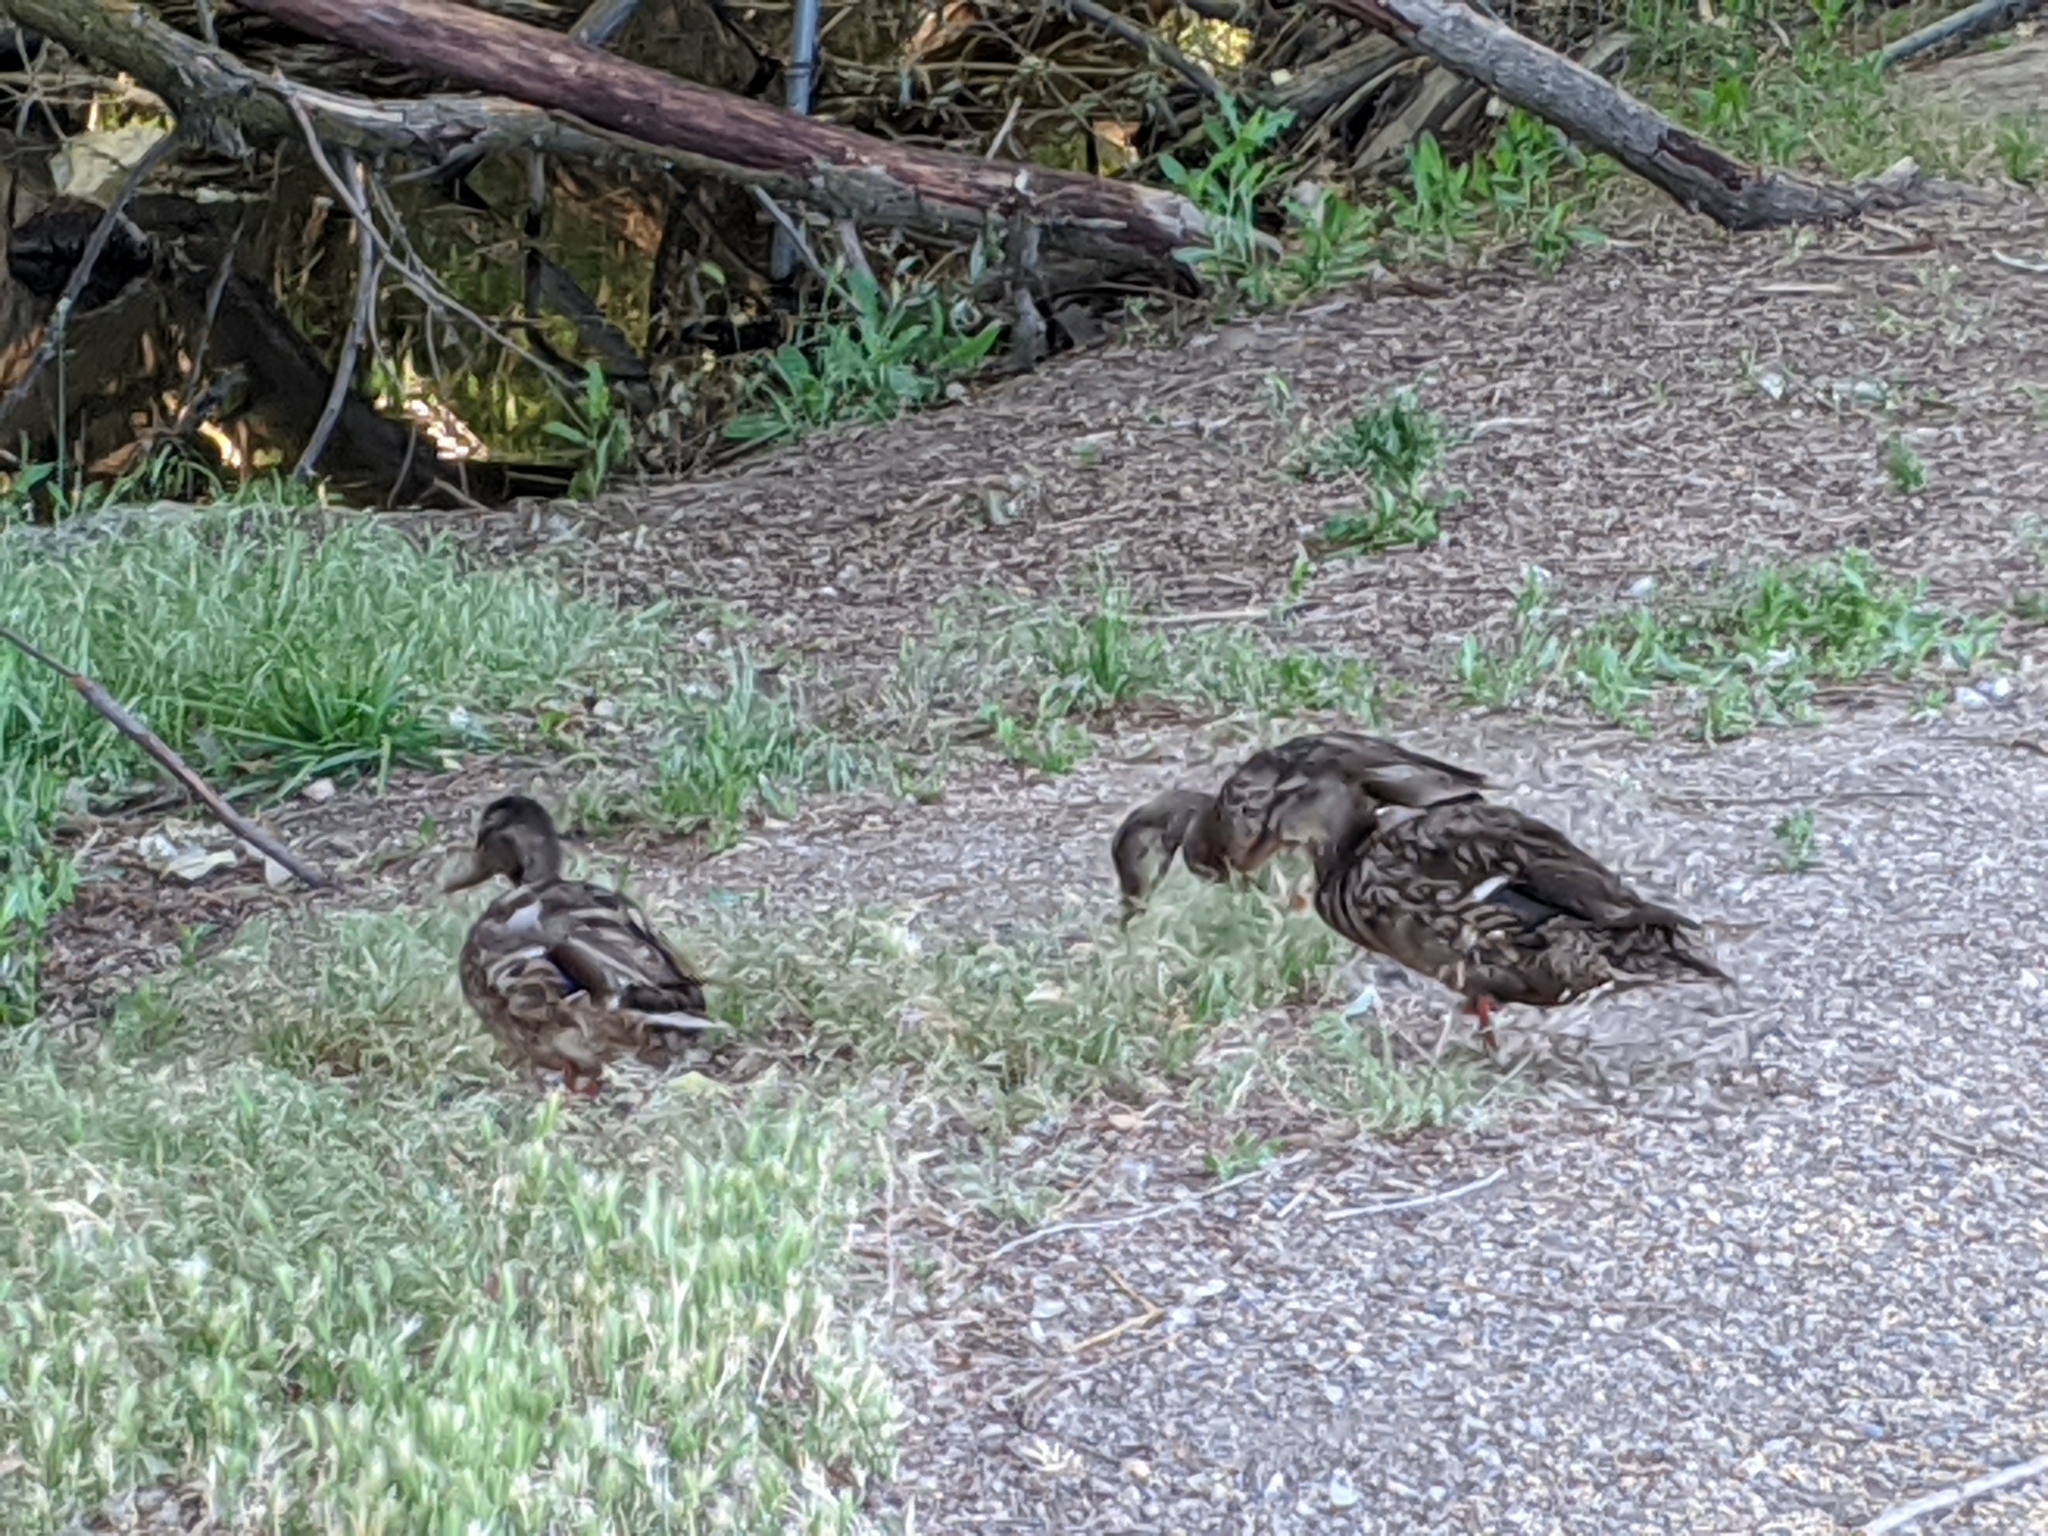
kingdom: Animalia
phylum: Chordata
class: Aves
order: Anseriformes
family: Anatidae
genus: Anas
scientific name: Anas platyrhynchos
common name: Mallard
